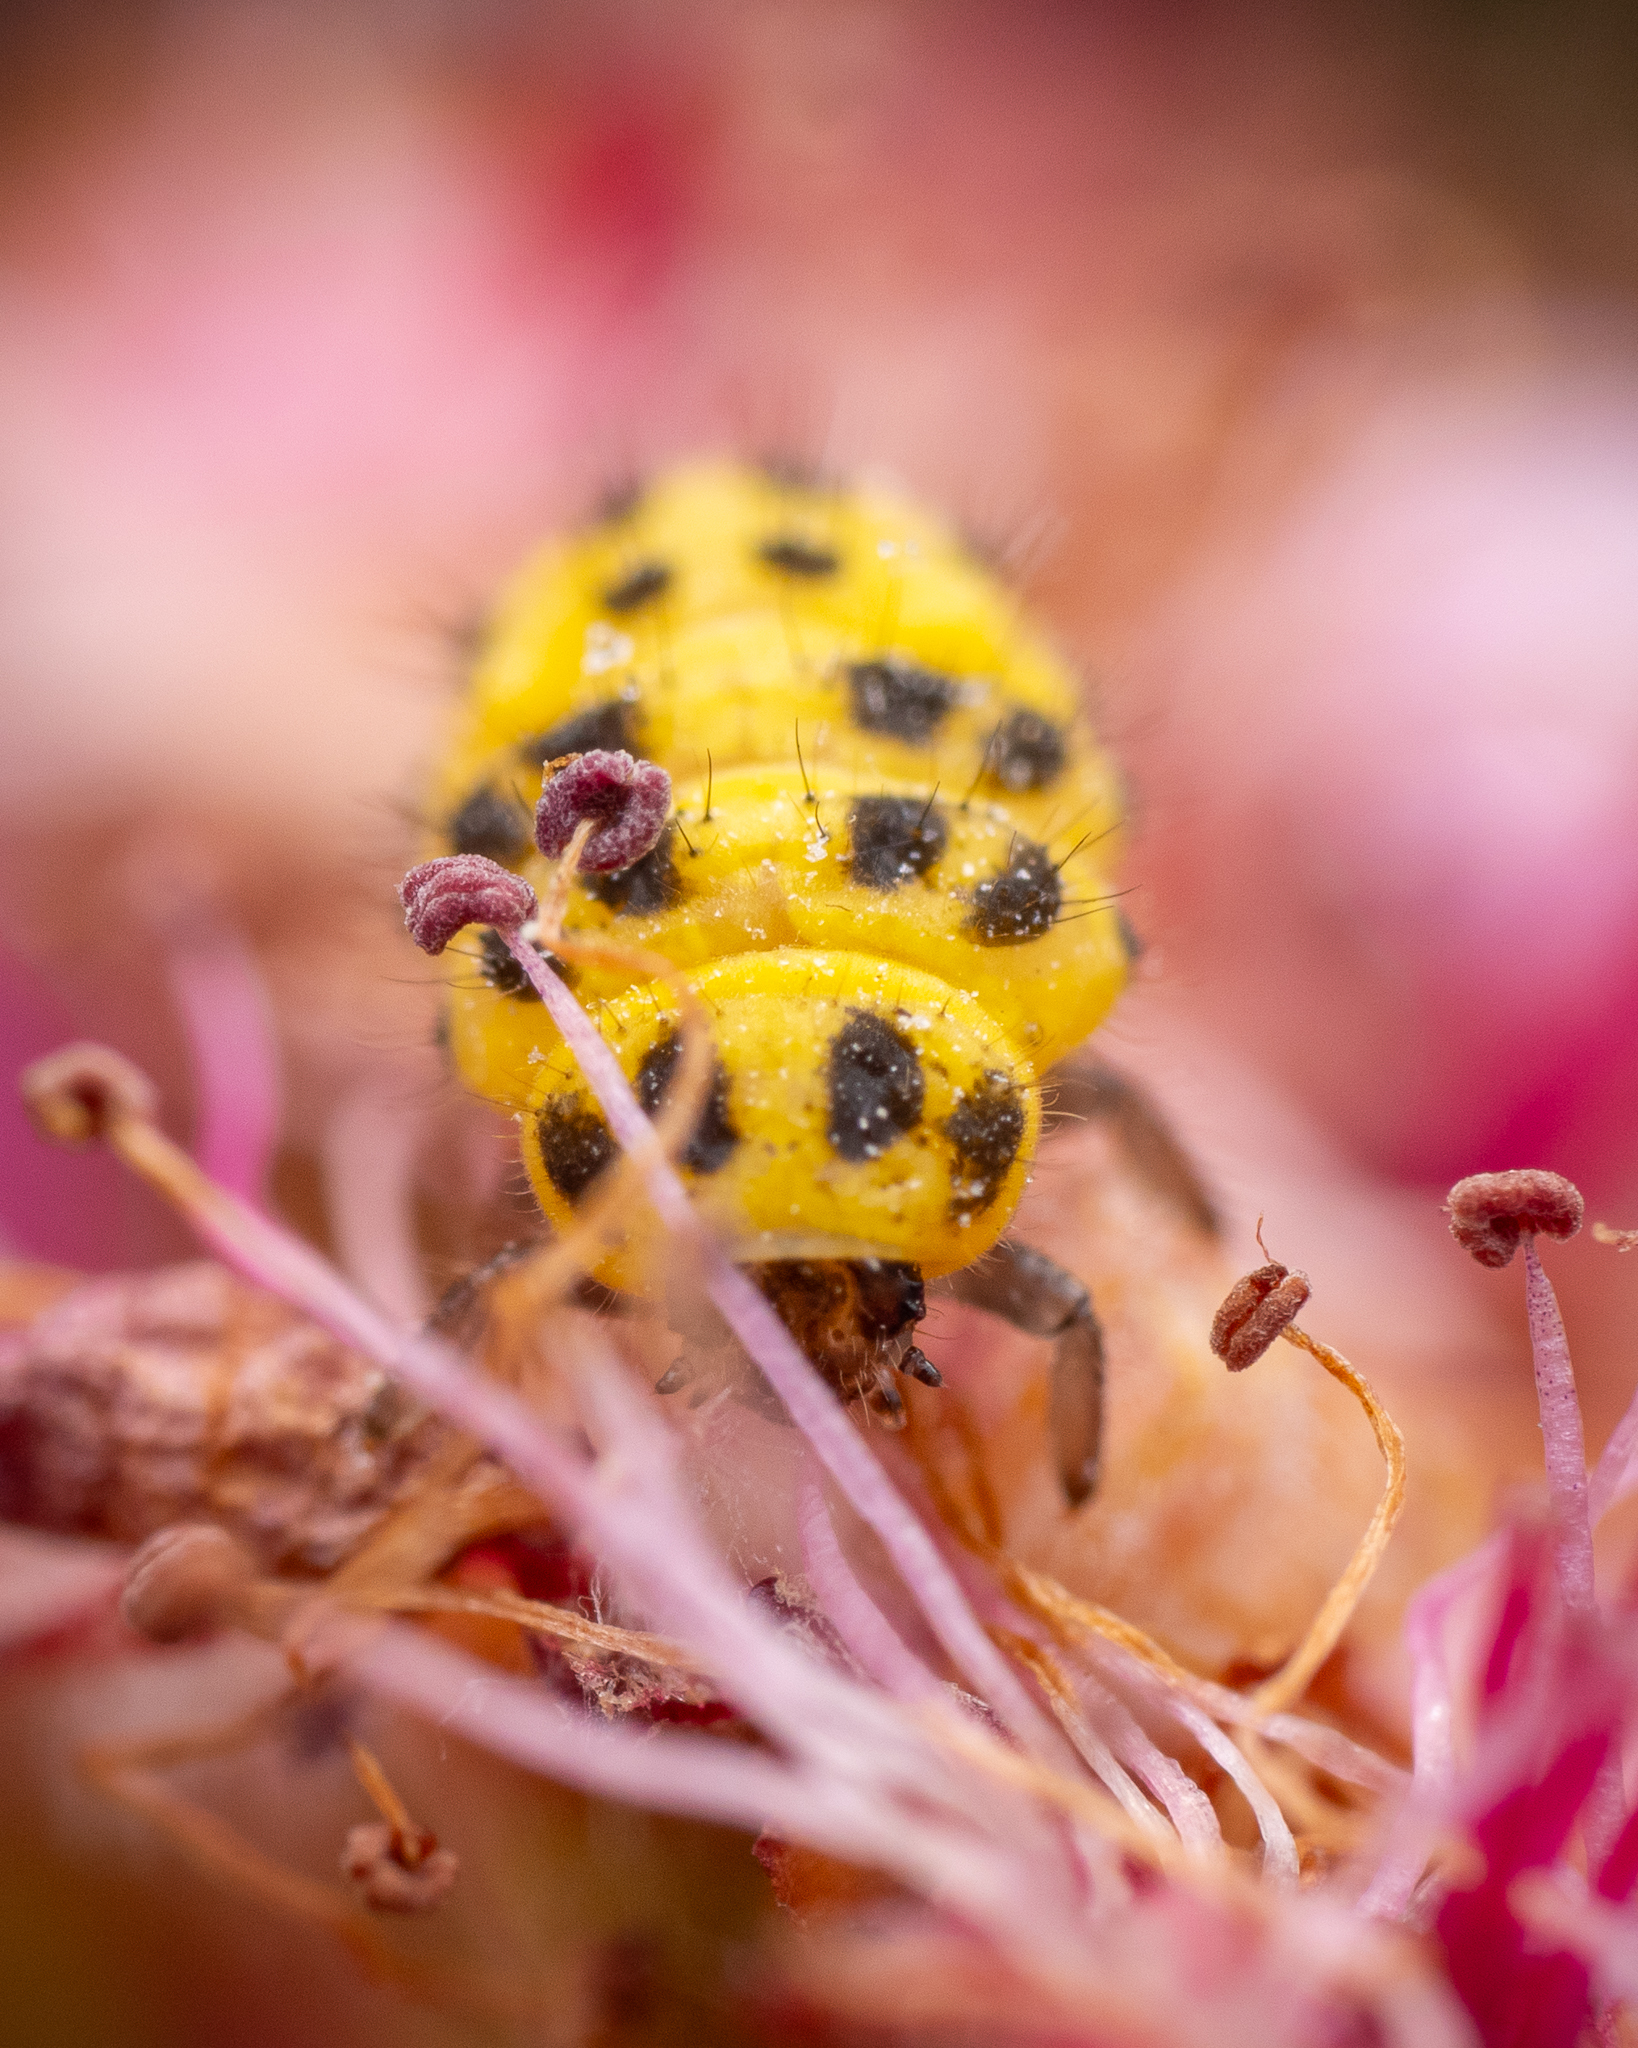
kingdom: Animalia
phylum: Arthropoda
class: Insecta
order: Coleoptera
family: Coccinellidae
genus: Psyllobora
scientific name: Psyllobora vigintiduopunctata
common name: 22-spot ladybird
